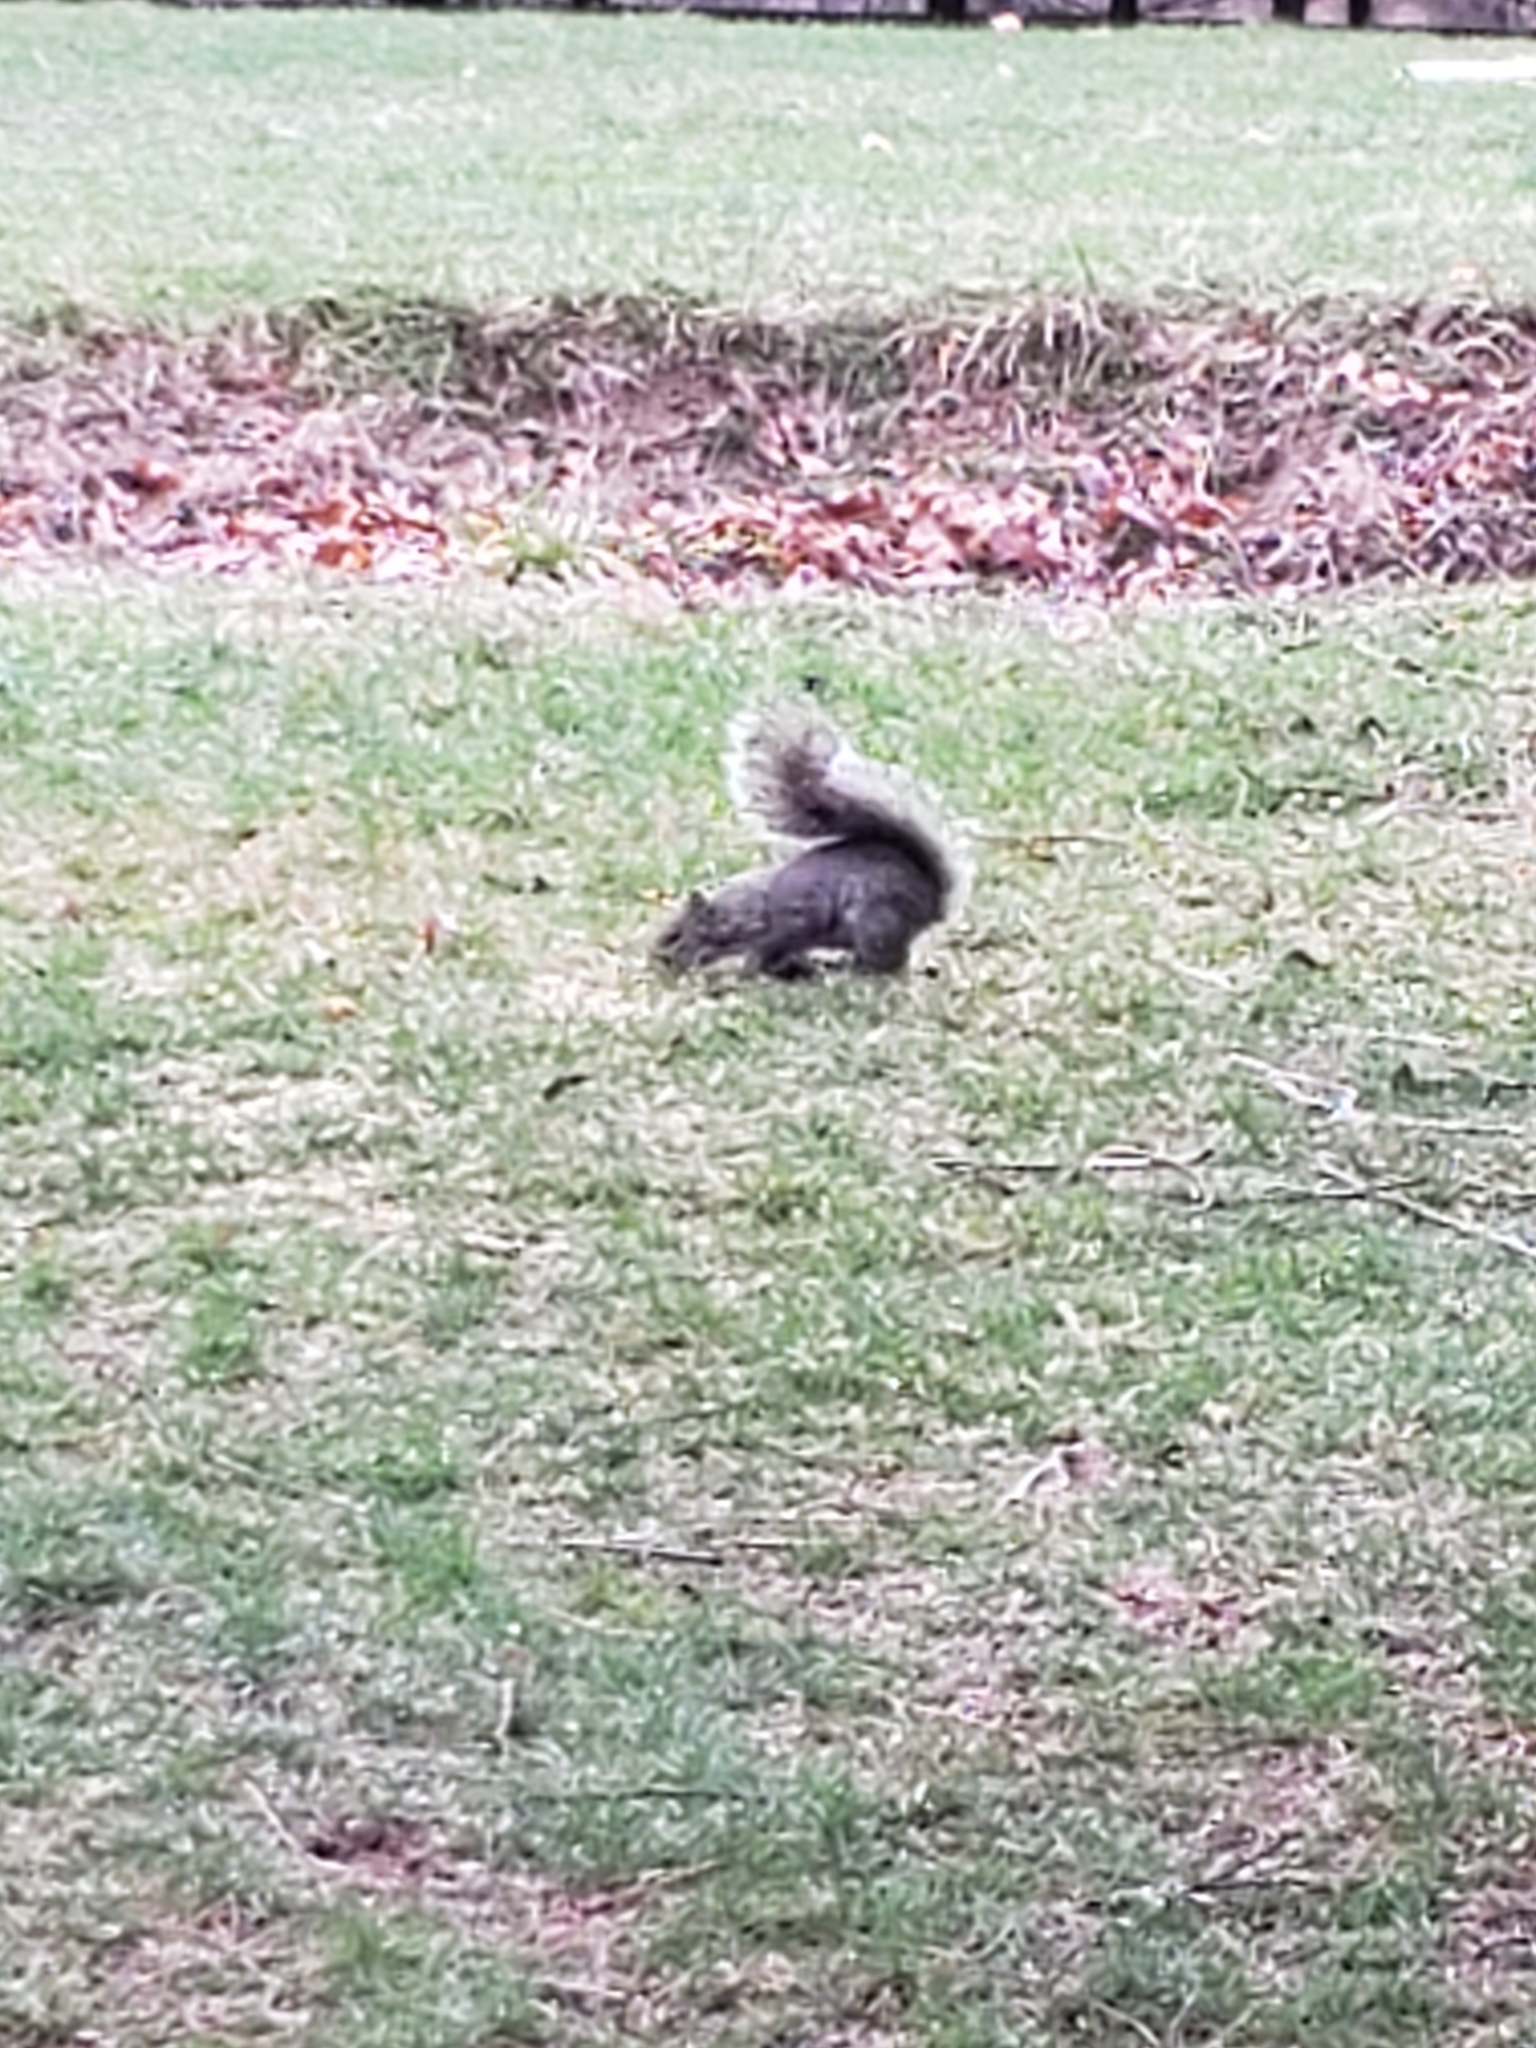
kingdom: Animalia
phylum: Chordata
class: Mammalia
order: Rodentia
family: Sciuridae
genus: Sciurus
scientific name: Sciurus carolinensis
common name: Eastern gray squirrel
